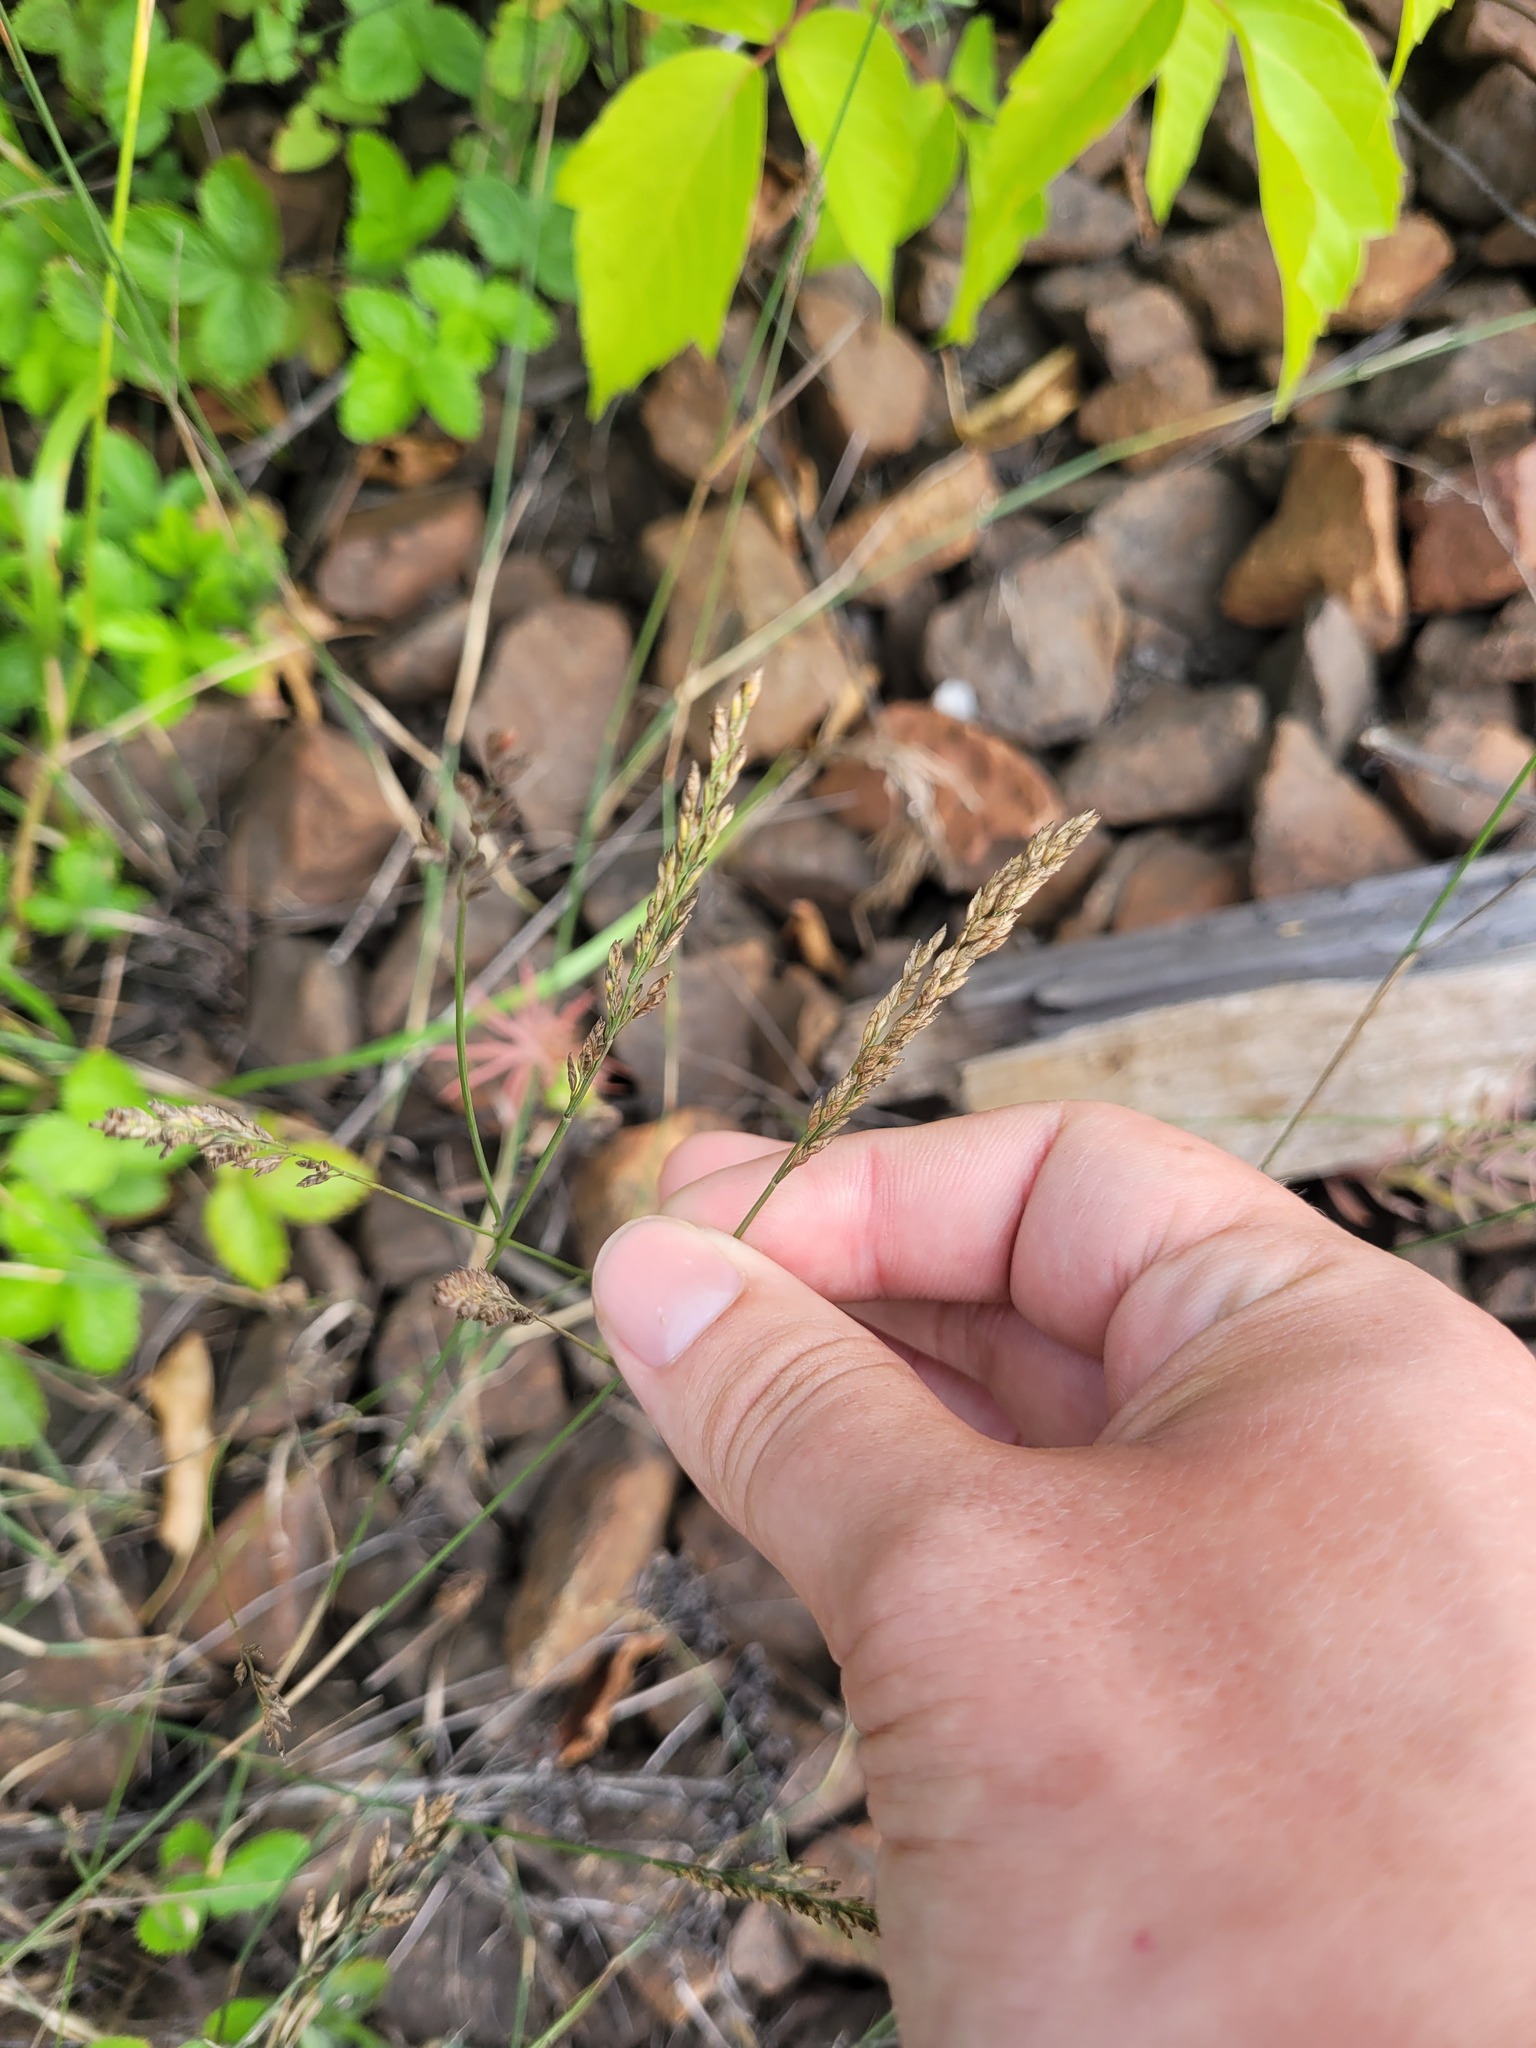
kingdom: Plantae
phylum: Tracheophyta
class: Liliopsida
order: Poales
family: Poaceae
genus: Poa
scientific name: Poa compressa
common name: Canada bluegrass
